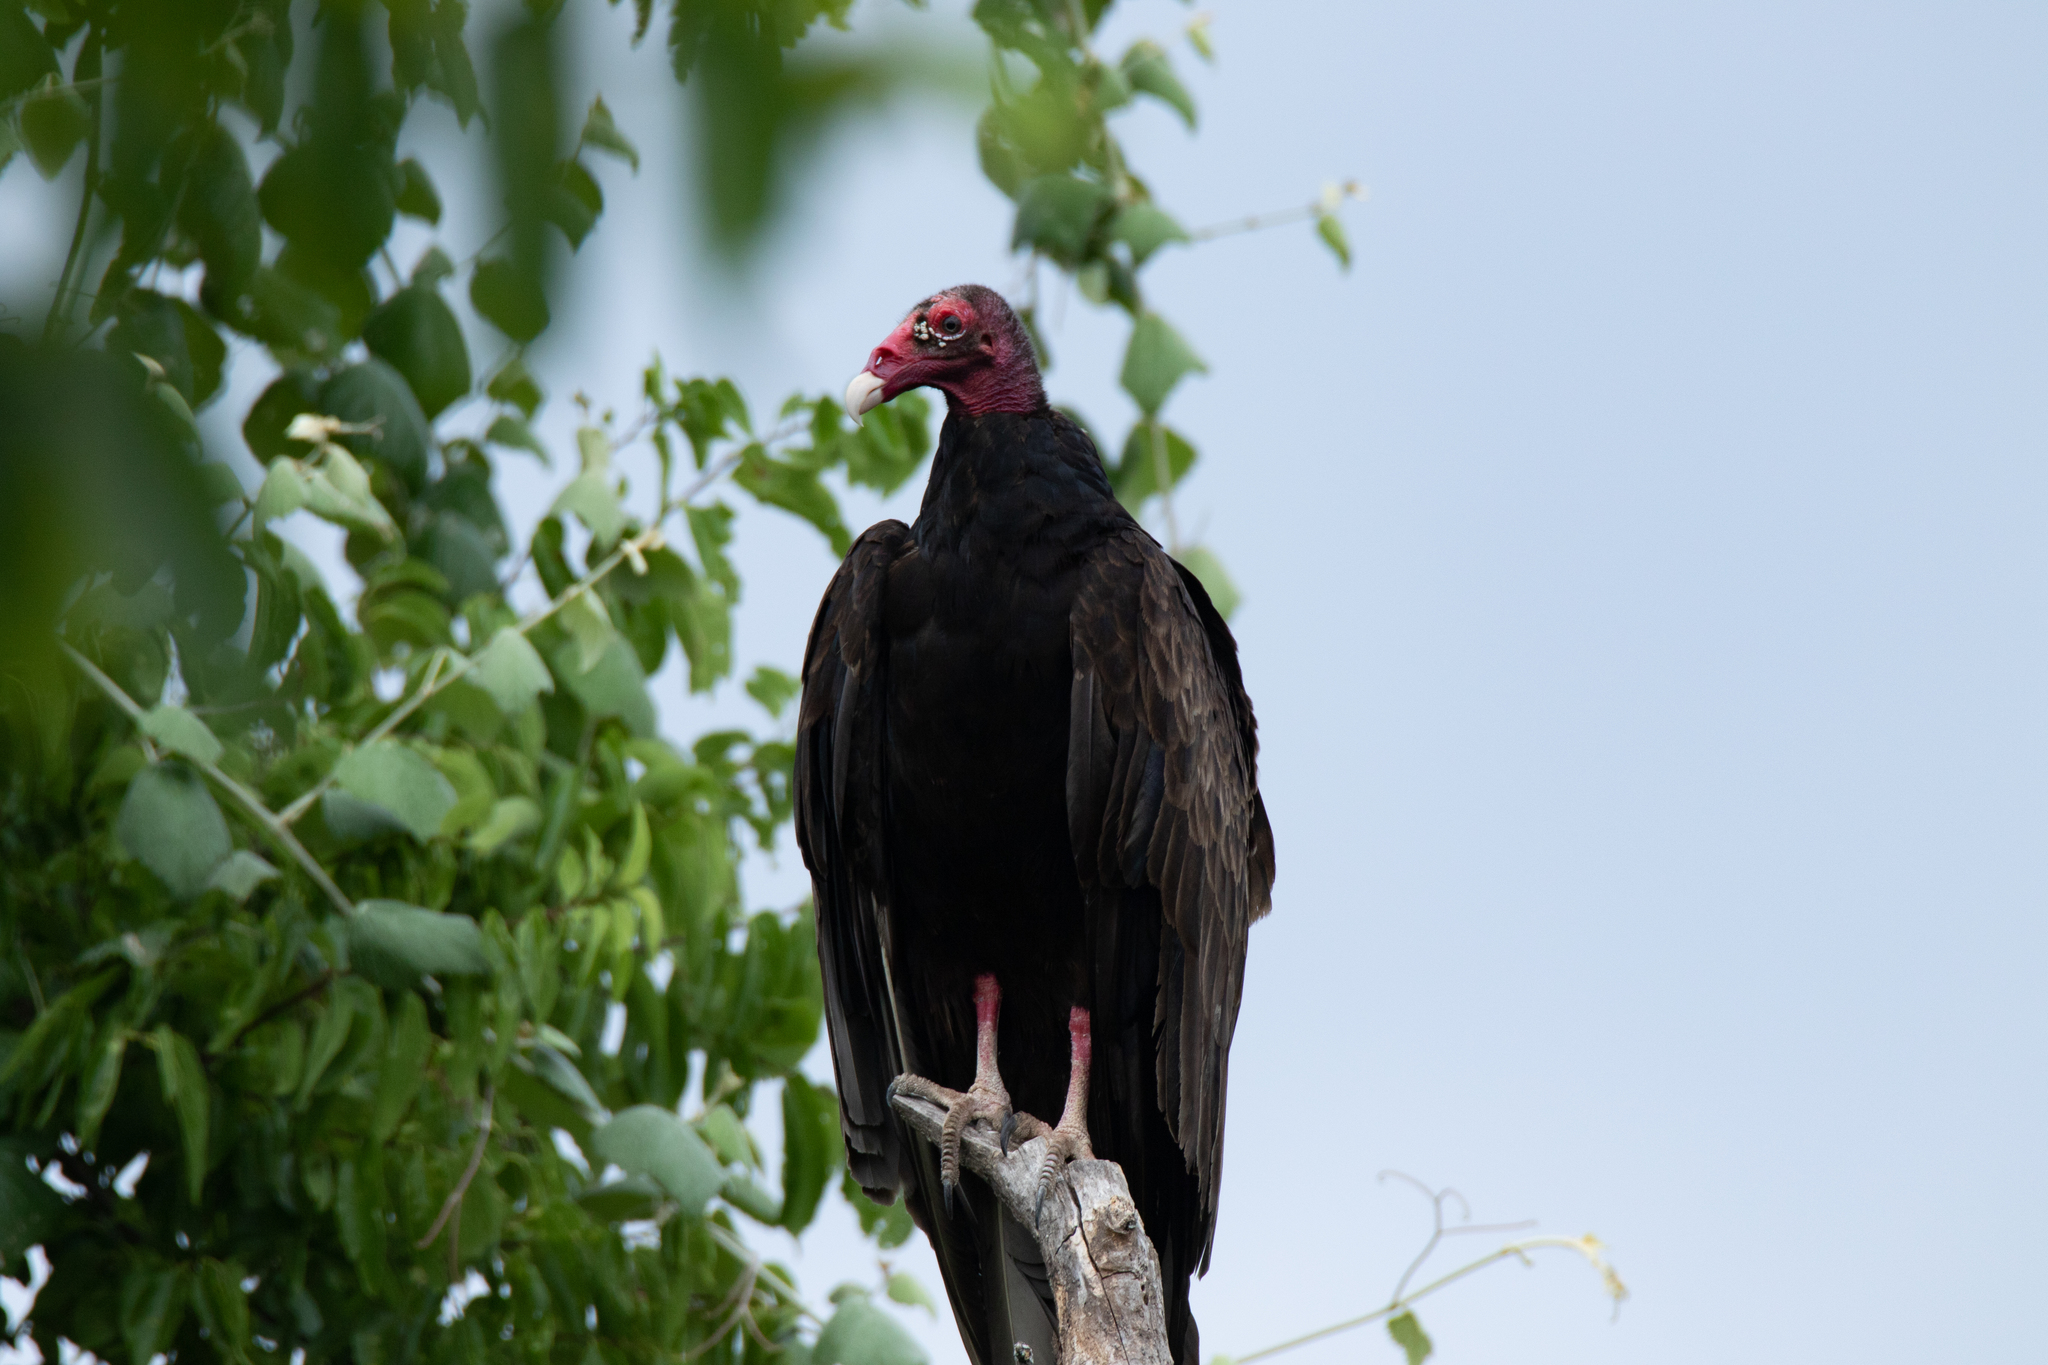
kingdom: Animalia
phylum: Chordata
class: Aves
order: Accipitriformes
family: Cathartidae
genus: Cathartes
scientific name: Cathartes aura
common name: Turkey vulture
